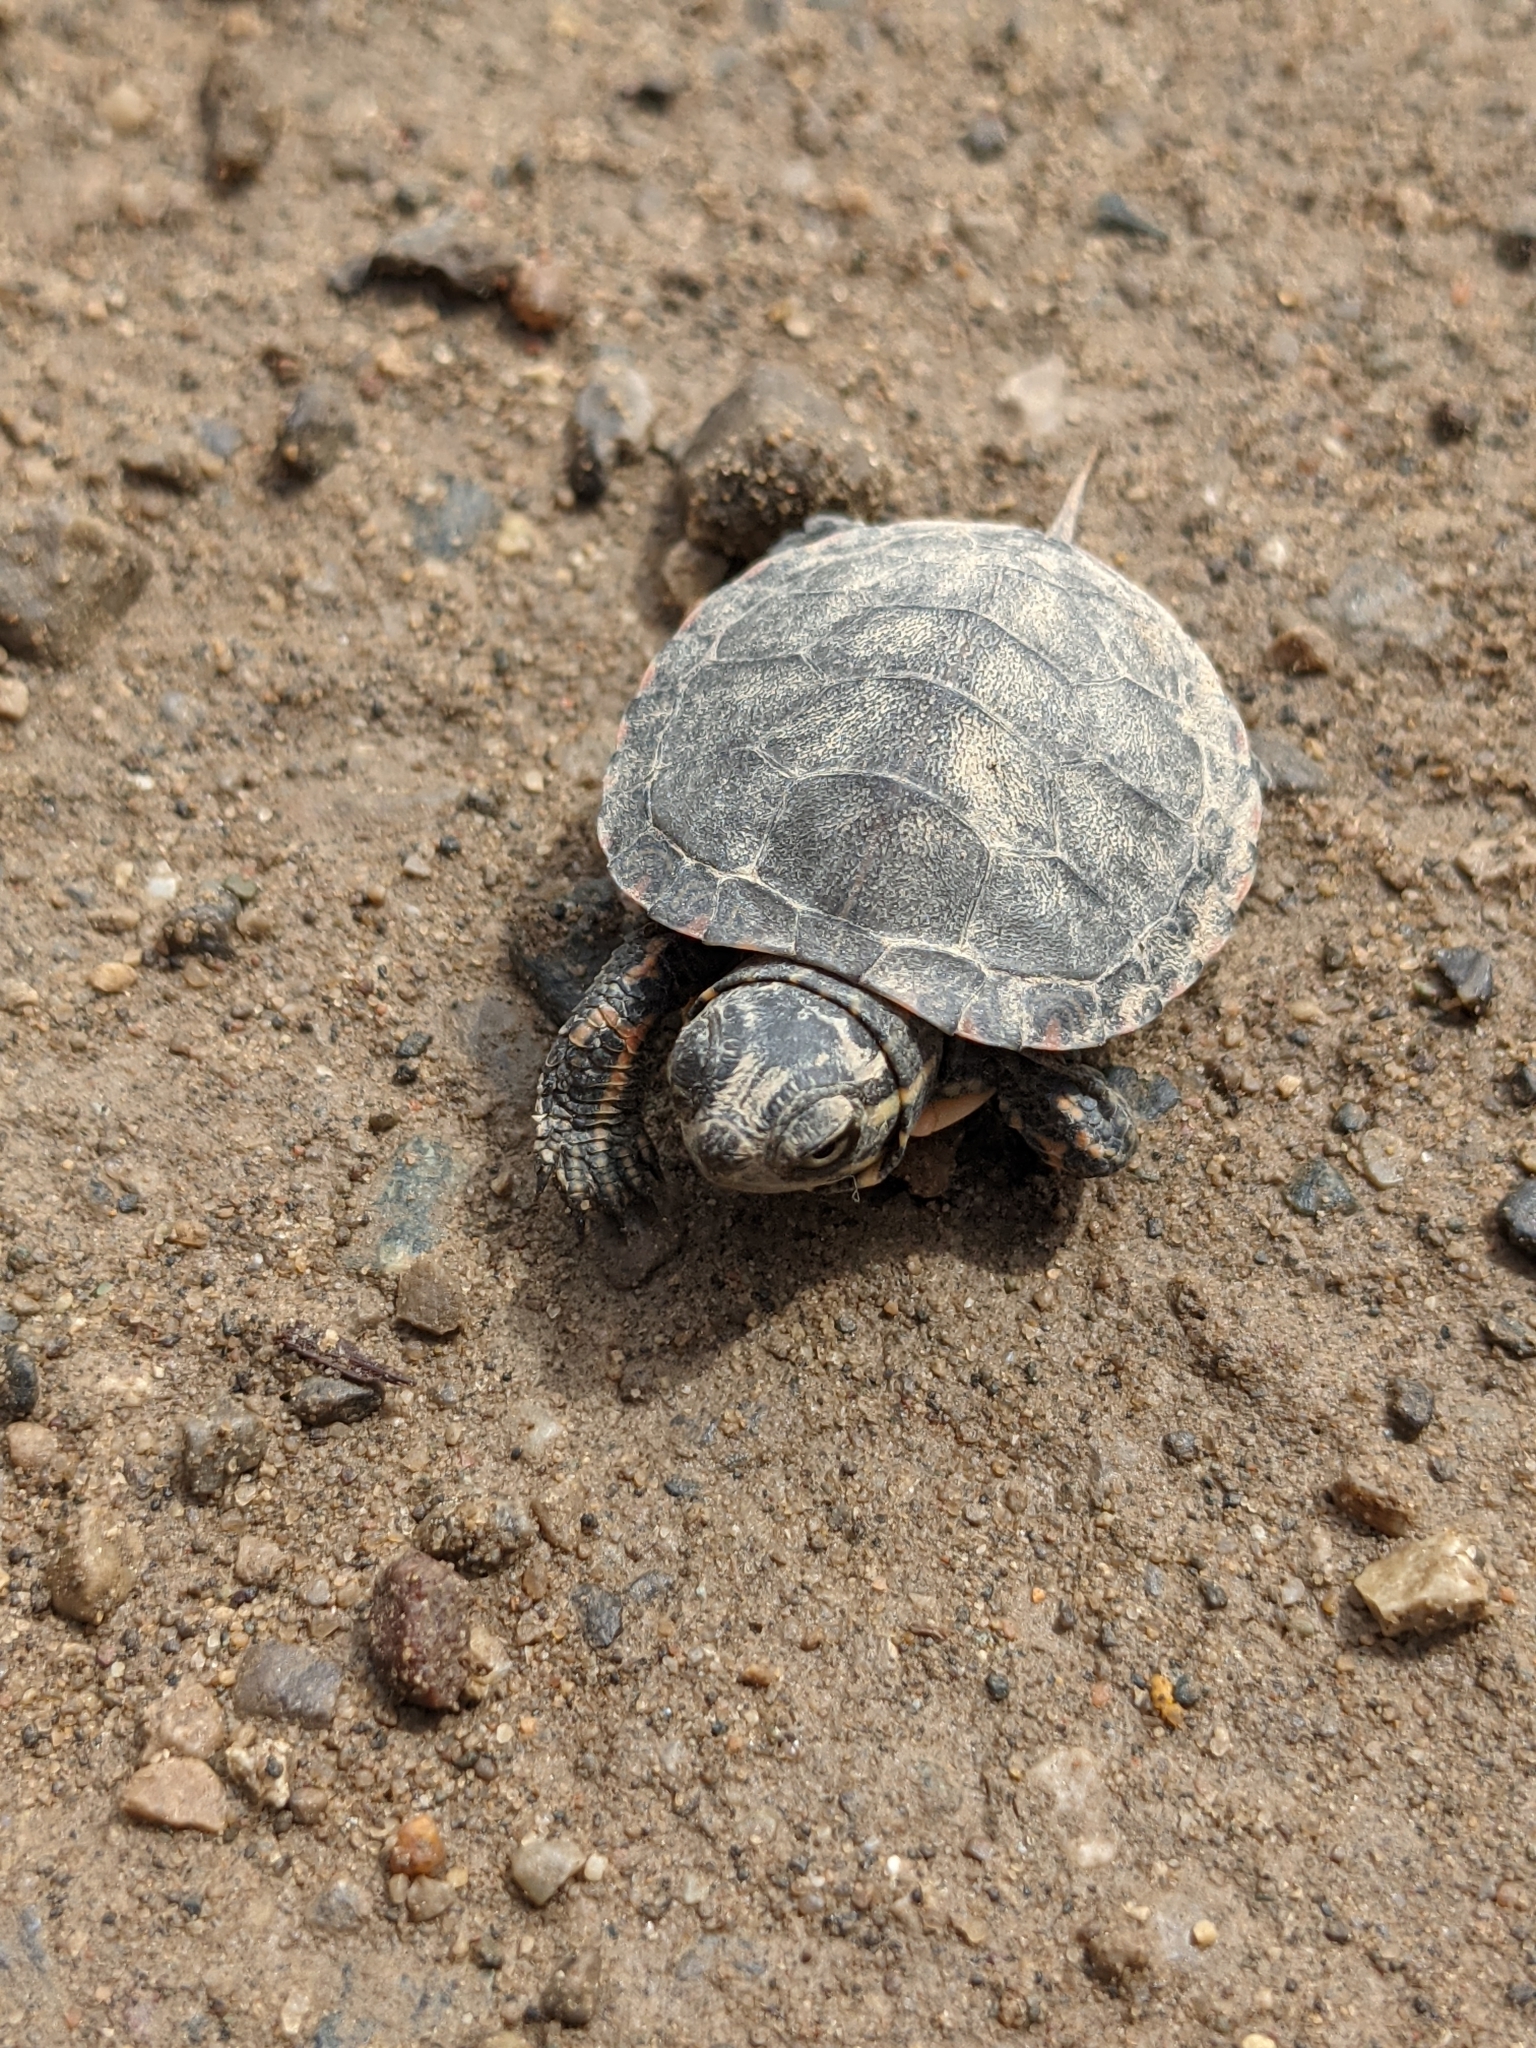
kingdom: Animalia
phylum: Chordata
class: Testudines
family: Emydidae
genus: Chrysemys
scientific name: Chrysemys picta
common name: Painted turtle
